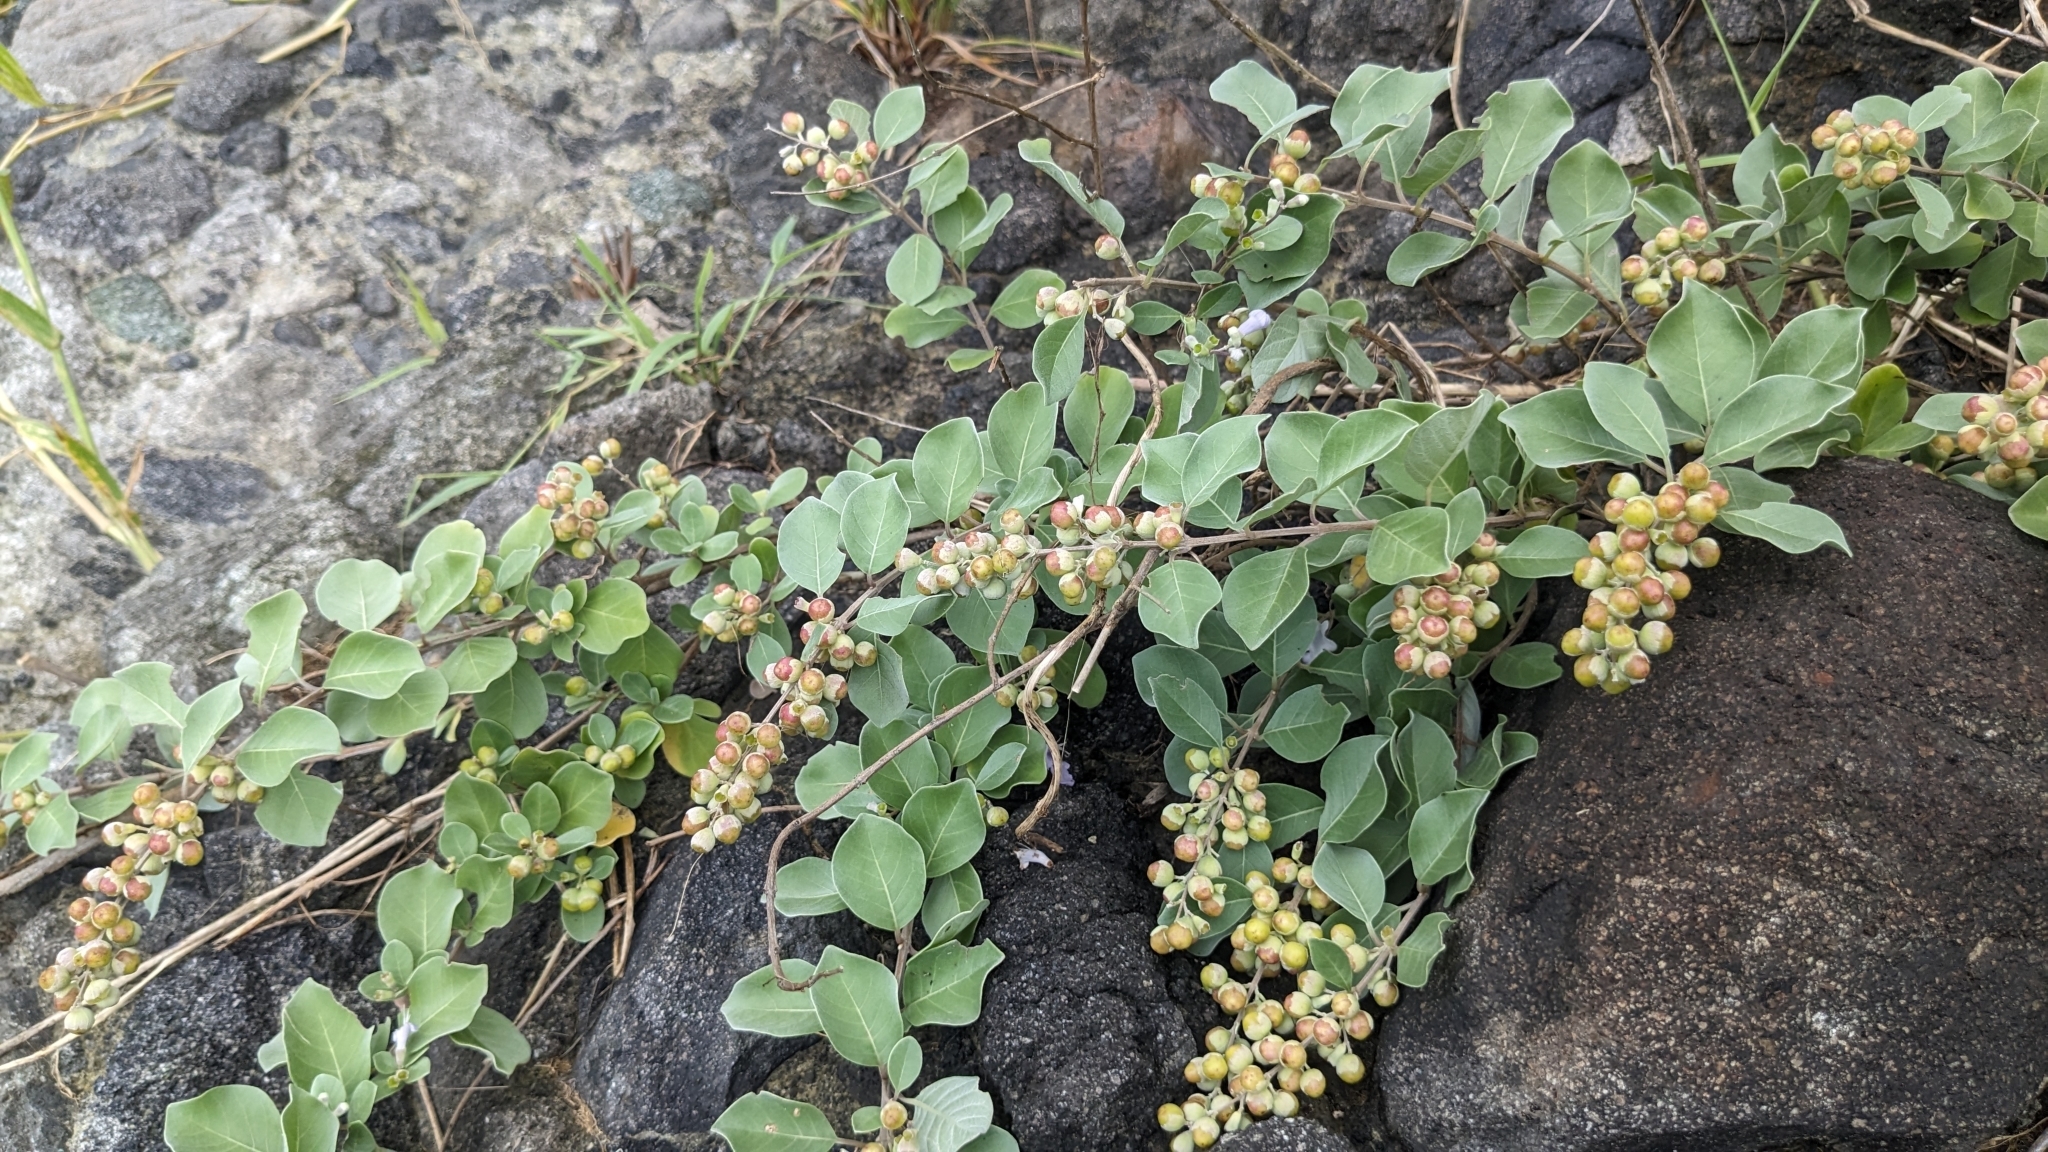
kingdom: Plantae
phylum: Tracheophyta
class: Magnoliopsida
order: Lamiales
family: Lamiaceae
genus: Vitex
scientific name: Vitex rotundifolia
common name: Beach vitex
